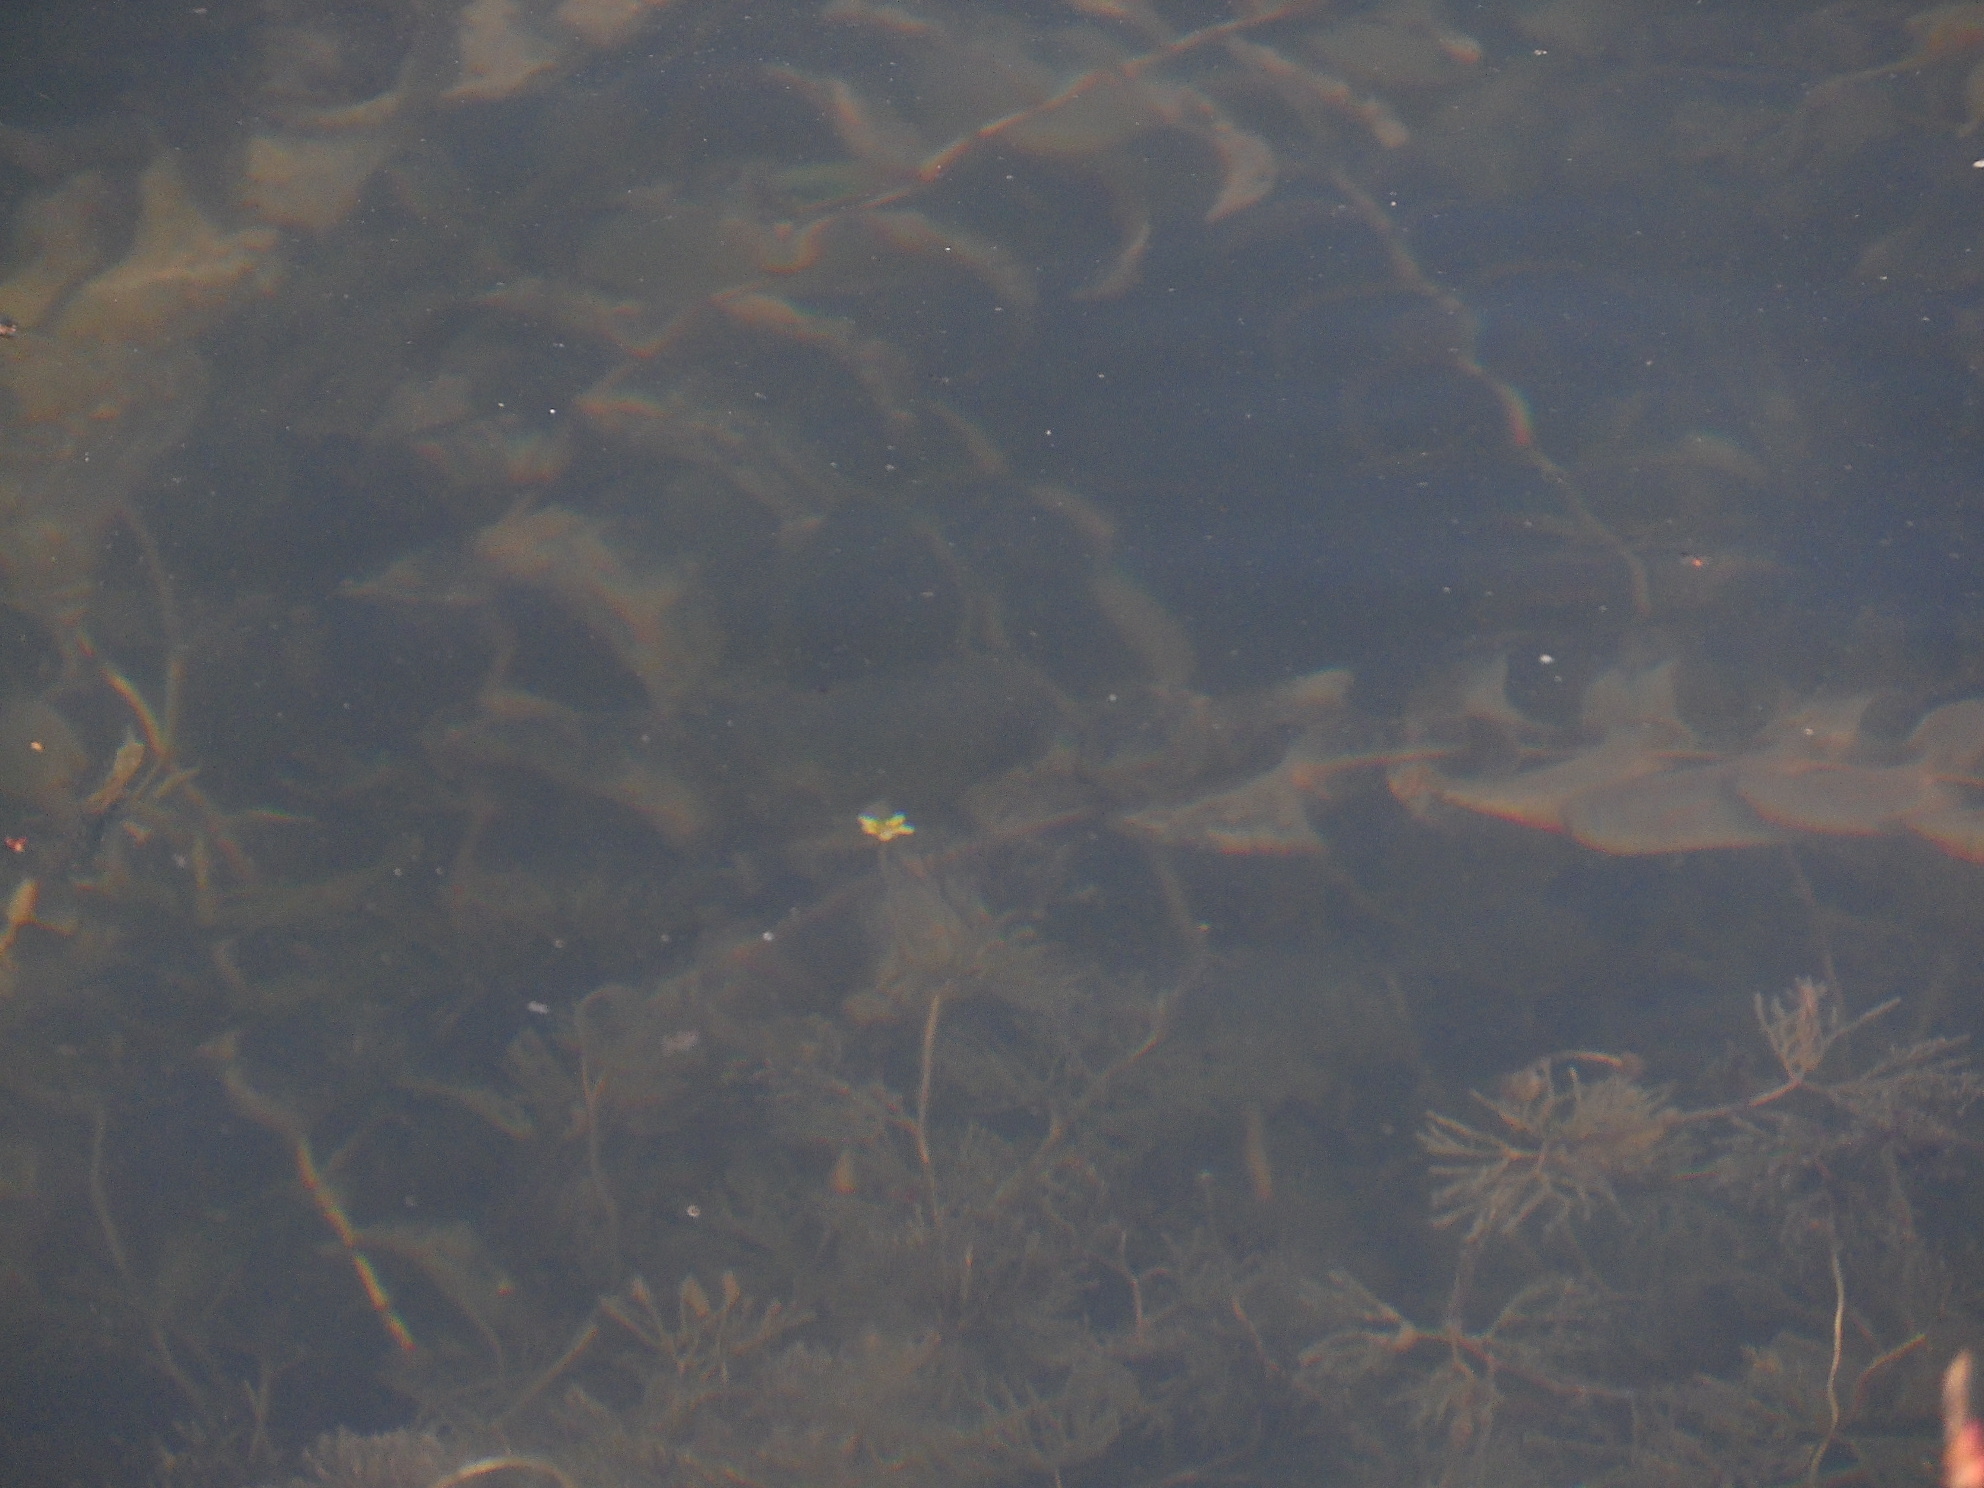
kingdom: Plantae
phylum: Tracheophyta
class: Magnoliopsida
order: Ranunculales
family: Ranunculaceae
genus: Ranunculus
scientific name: Ranunculus trichophyllus
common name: Thread-leaved water-crowfoot
